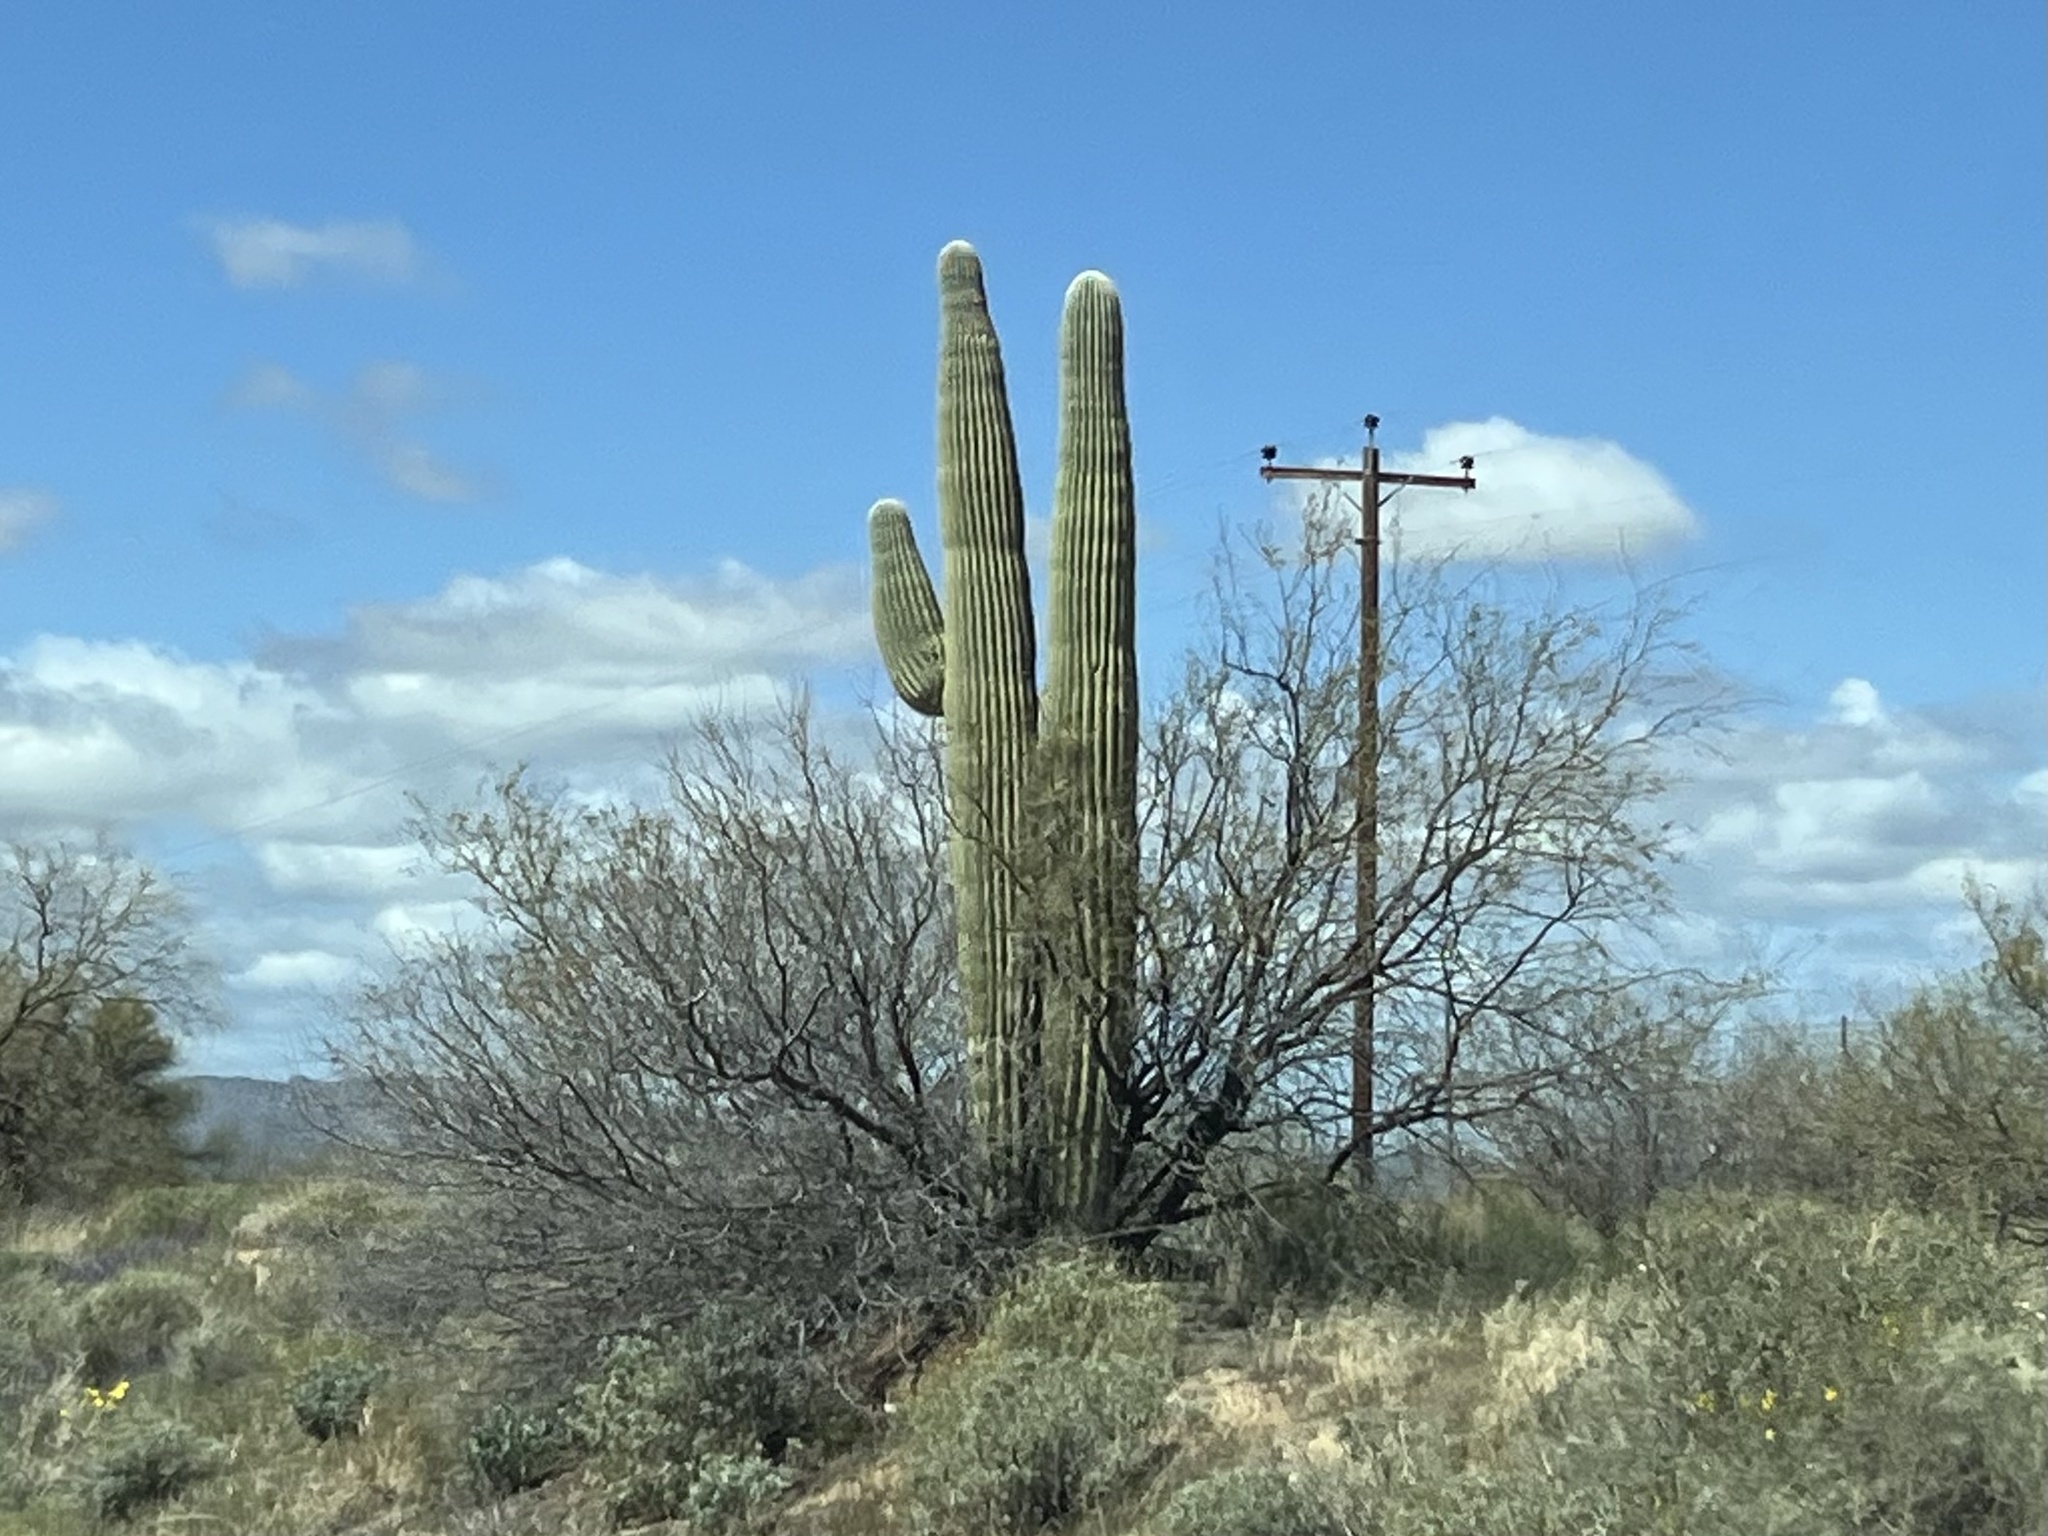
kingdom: Plantae
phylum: Tracheophyta
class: Magnoliopsida
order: Caryophyllales
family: Cactaceae
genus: Carnegiea
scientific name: Carnegiea gigantea
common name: Saguaro
